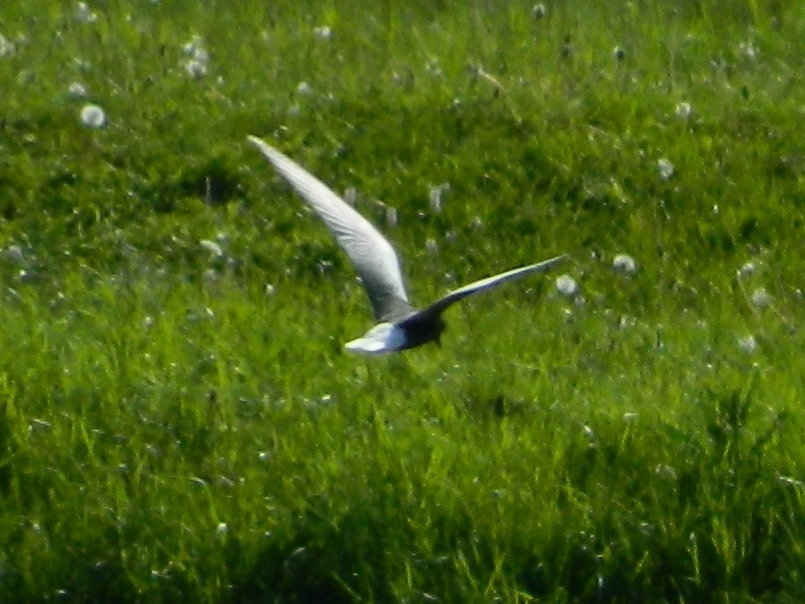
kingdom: Animalia
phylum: Chordata
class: Aves
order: Charadriiformes
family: Laridae
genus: Chlidonias
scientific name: Chlidonias leucopterus
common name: White-winged tern
